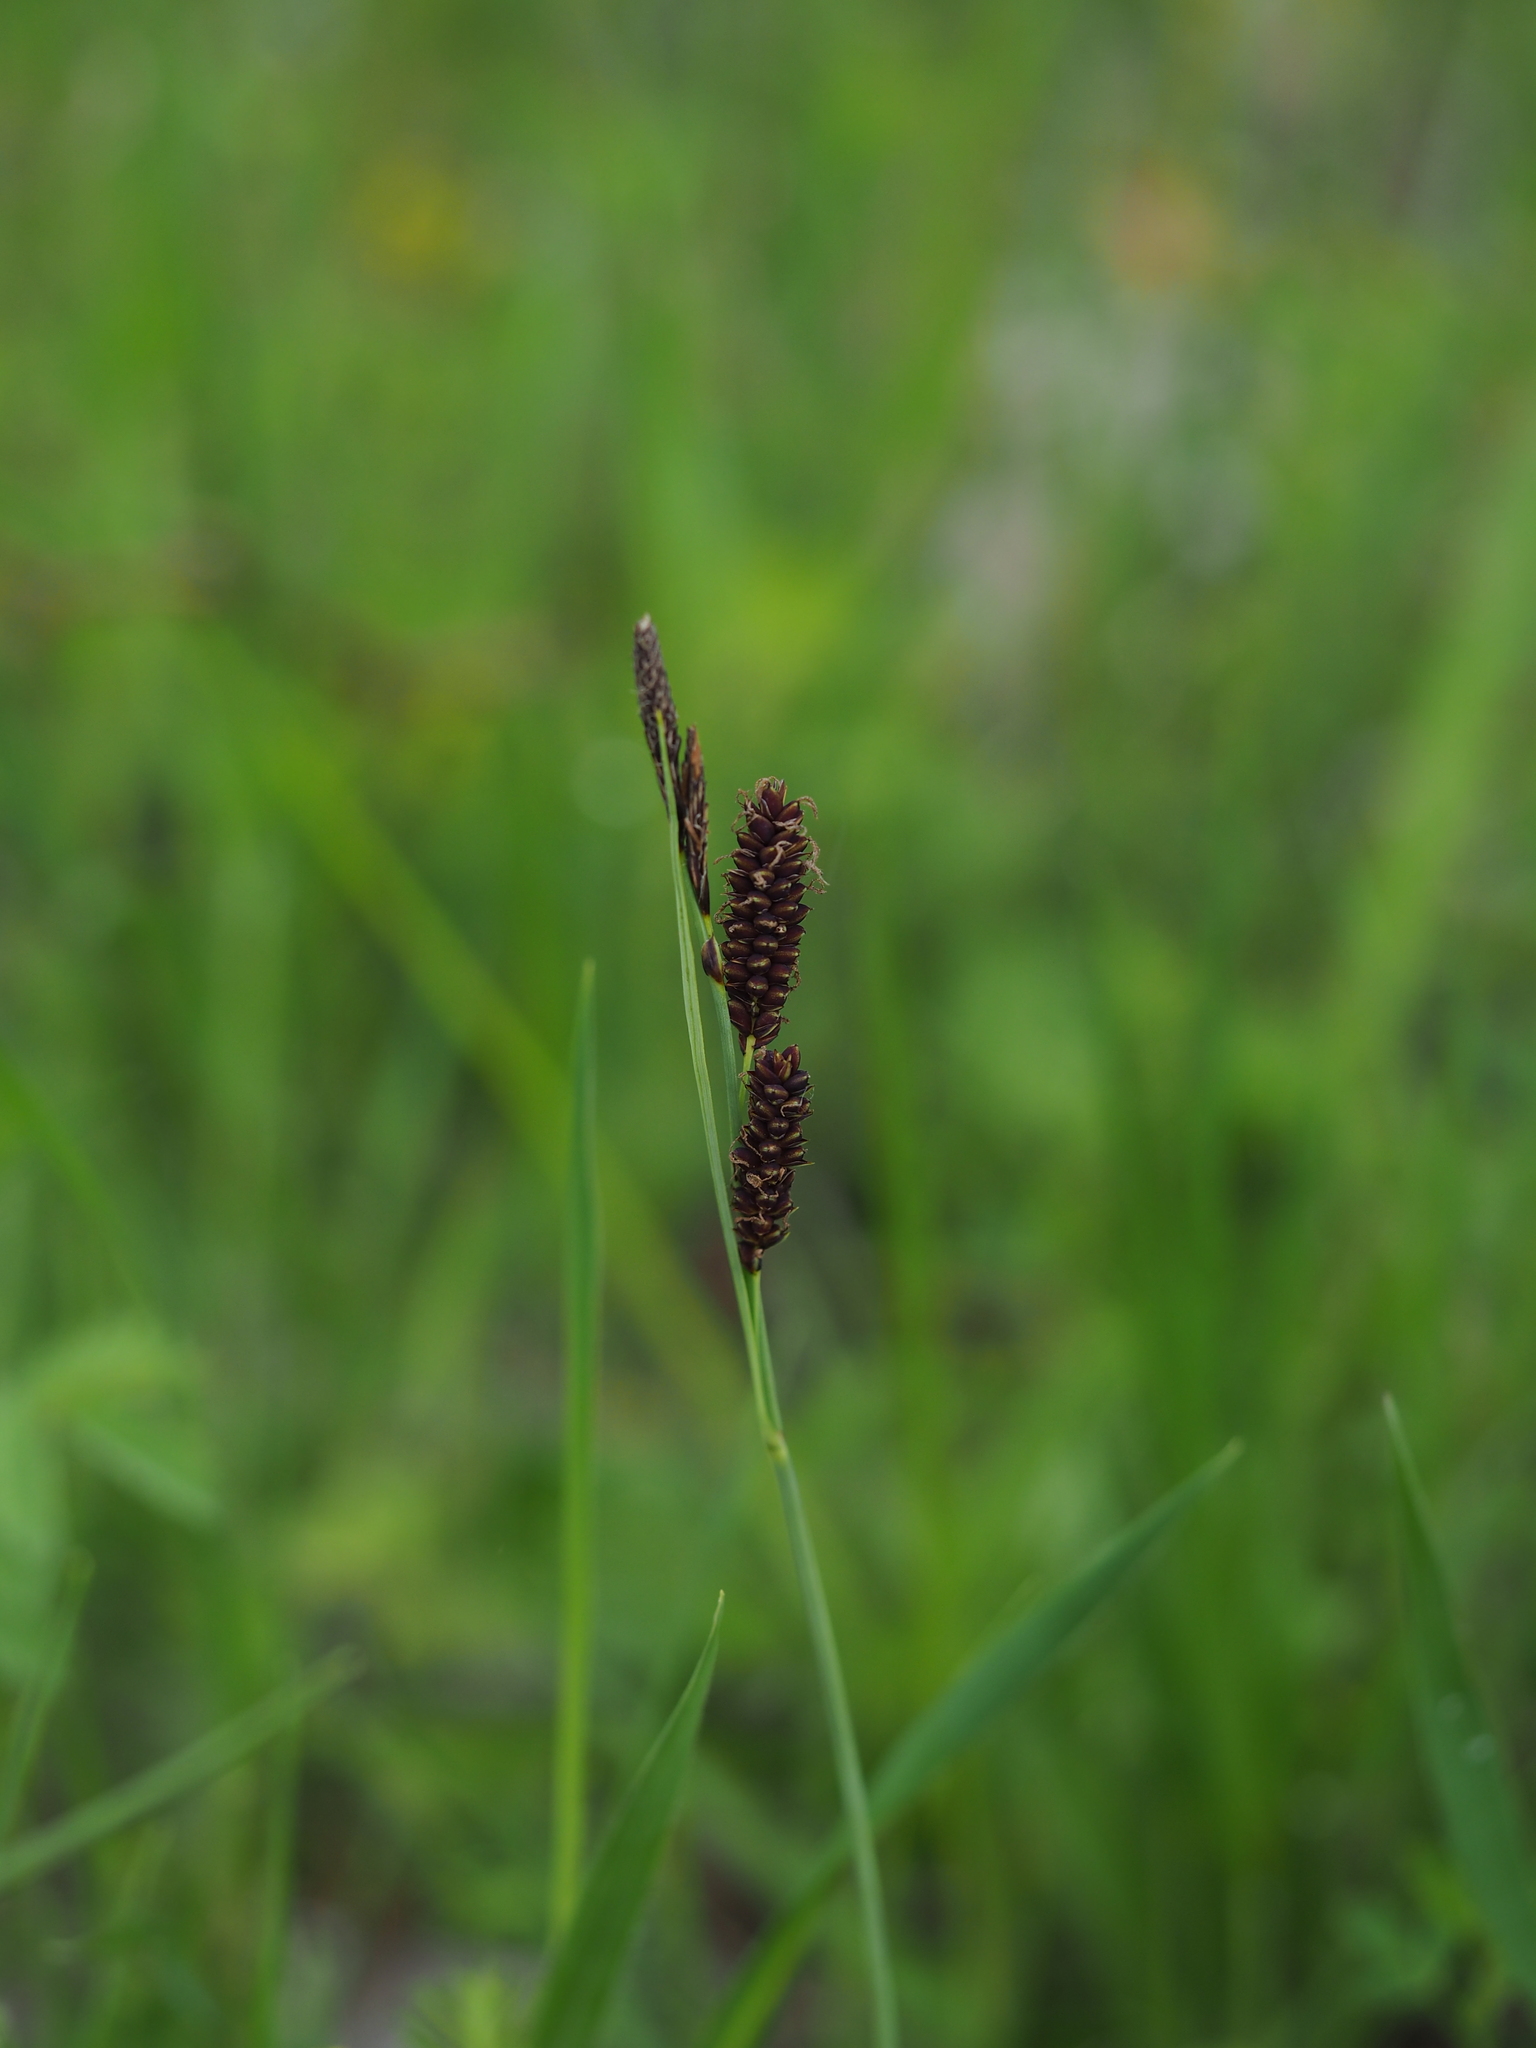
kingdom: Plantae
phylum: Tracheophyta
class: Liliopsida
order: Poales
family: Cyperaceae
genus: Carex
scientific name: Carex flacca
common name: Glaucous sedge
